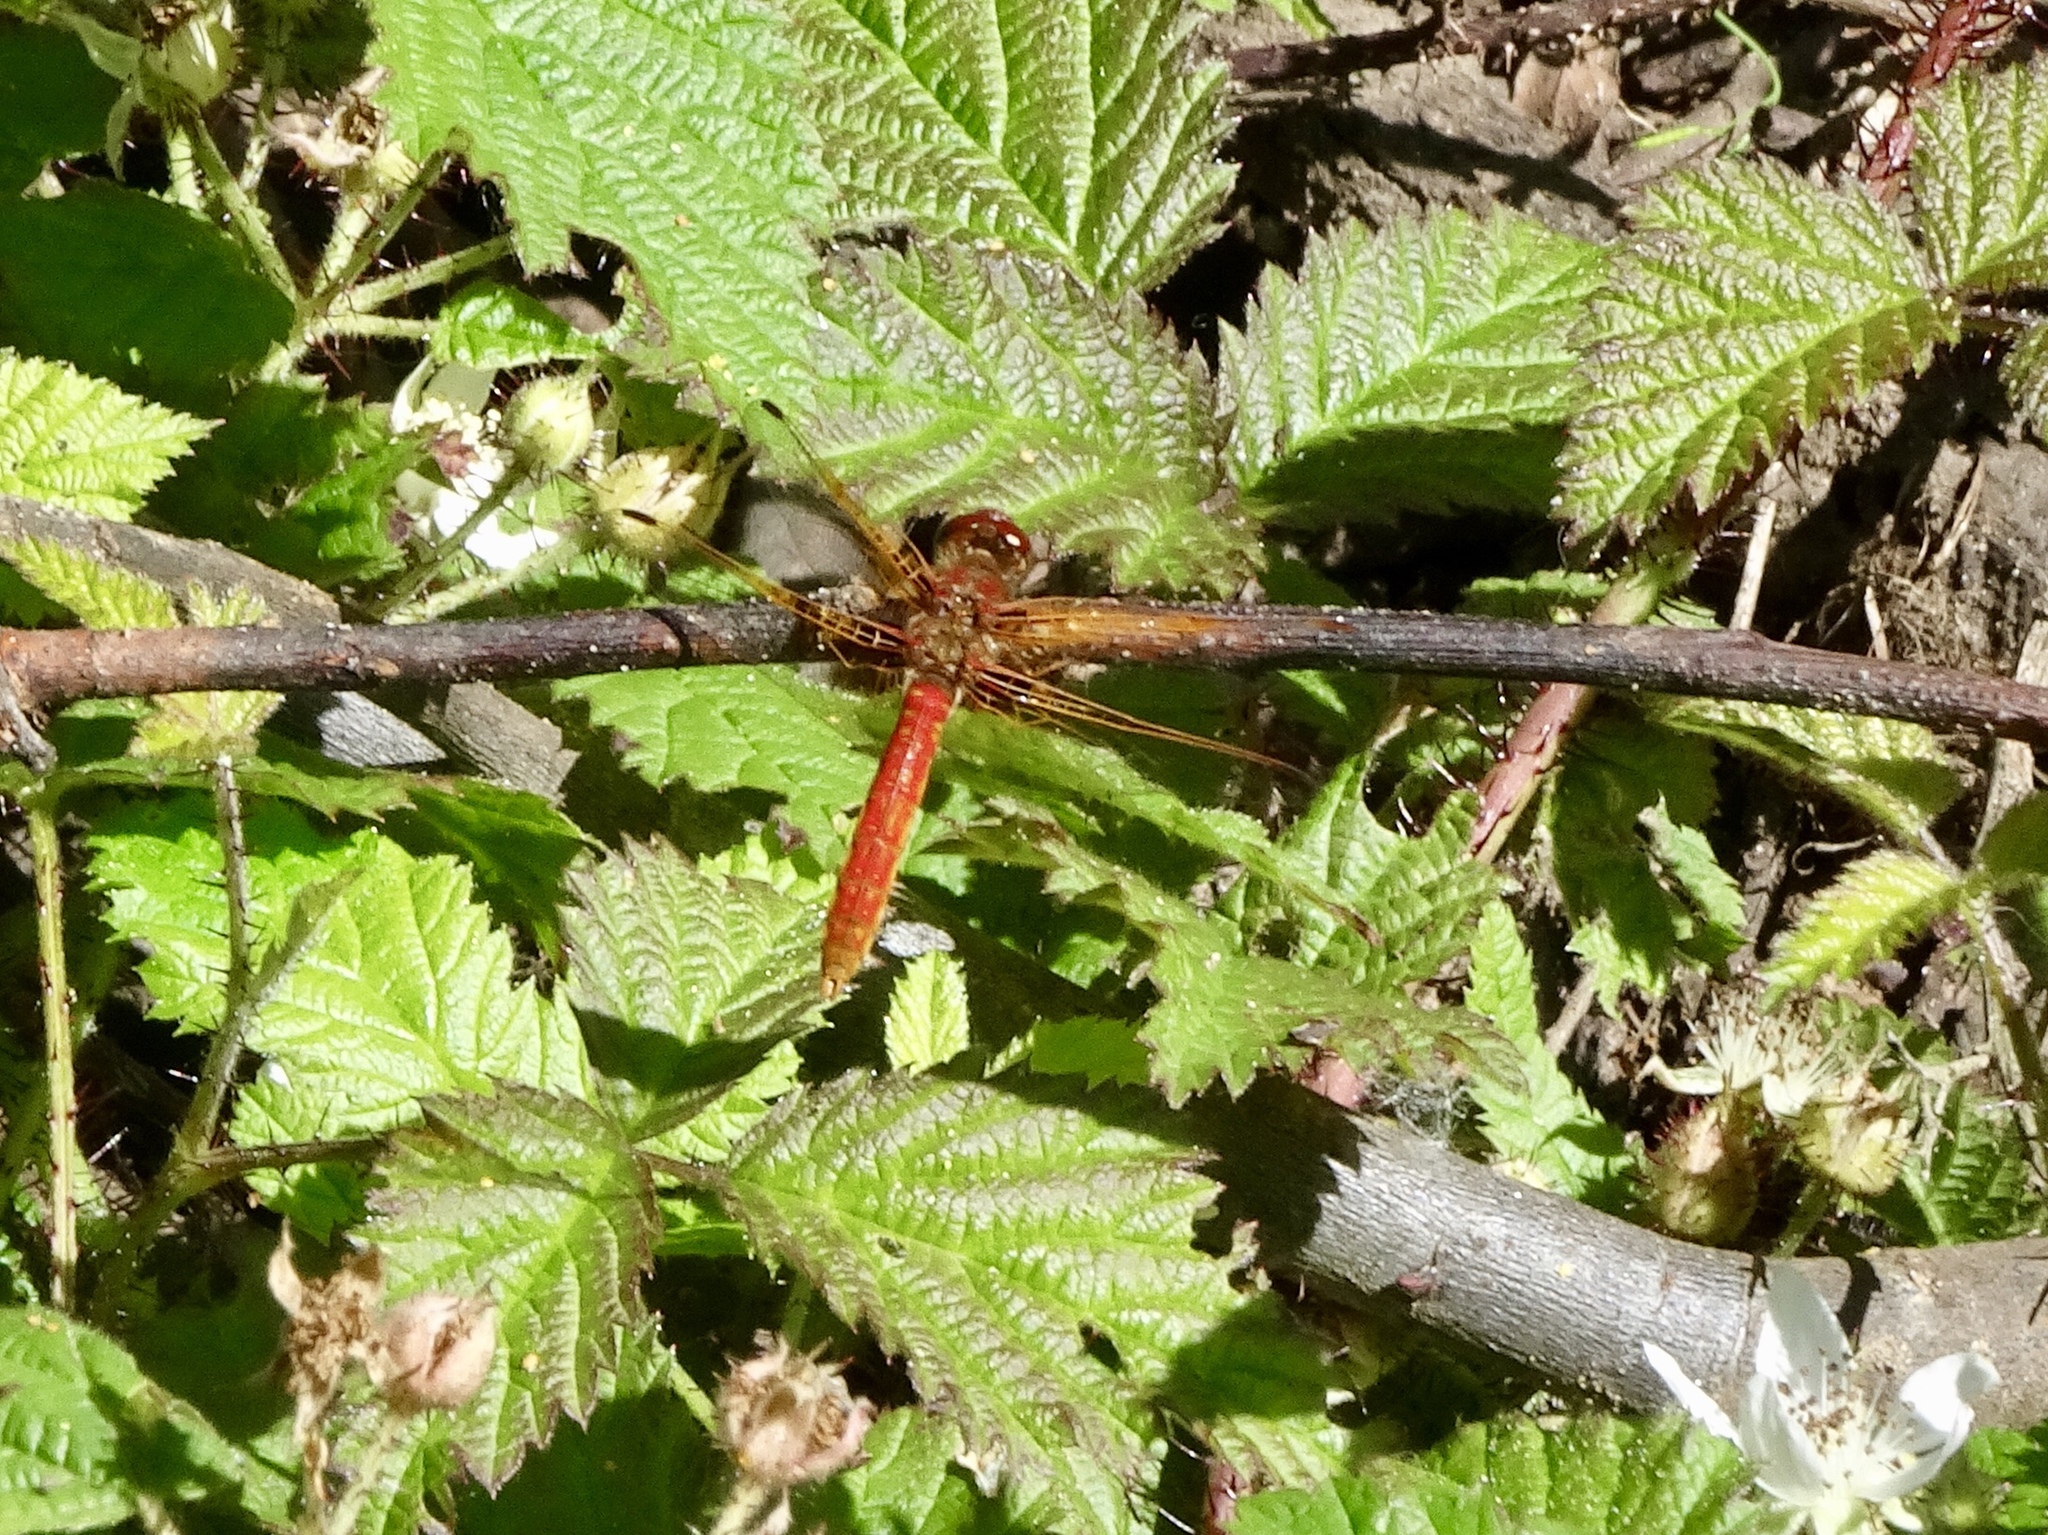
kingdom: Animalia
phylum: Arthropoda
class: Insecta
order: Odonata
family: Libellulidae
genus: Sympetrum
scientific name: Sympetrum illotum
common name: Cardinal meadowhawk
